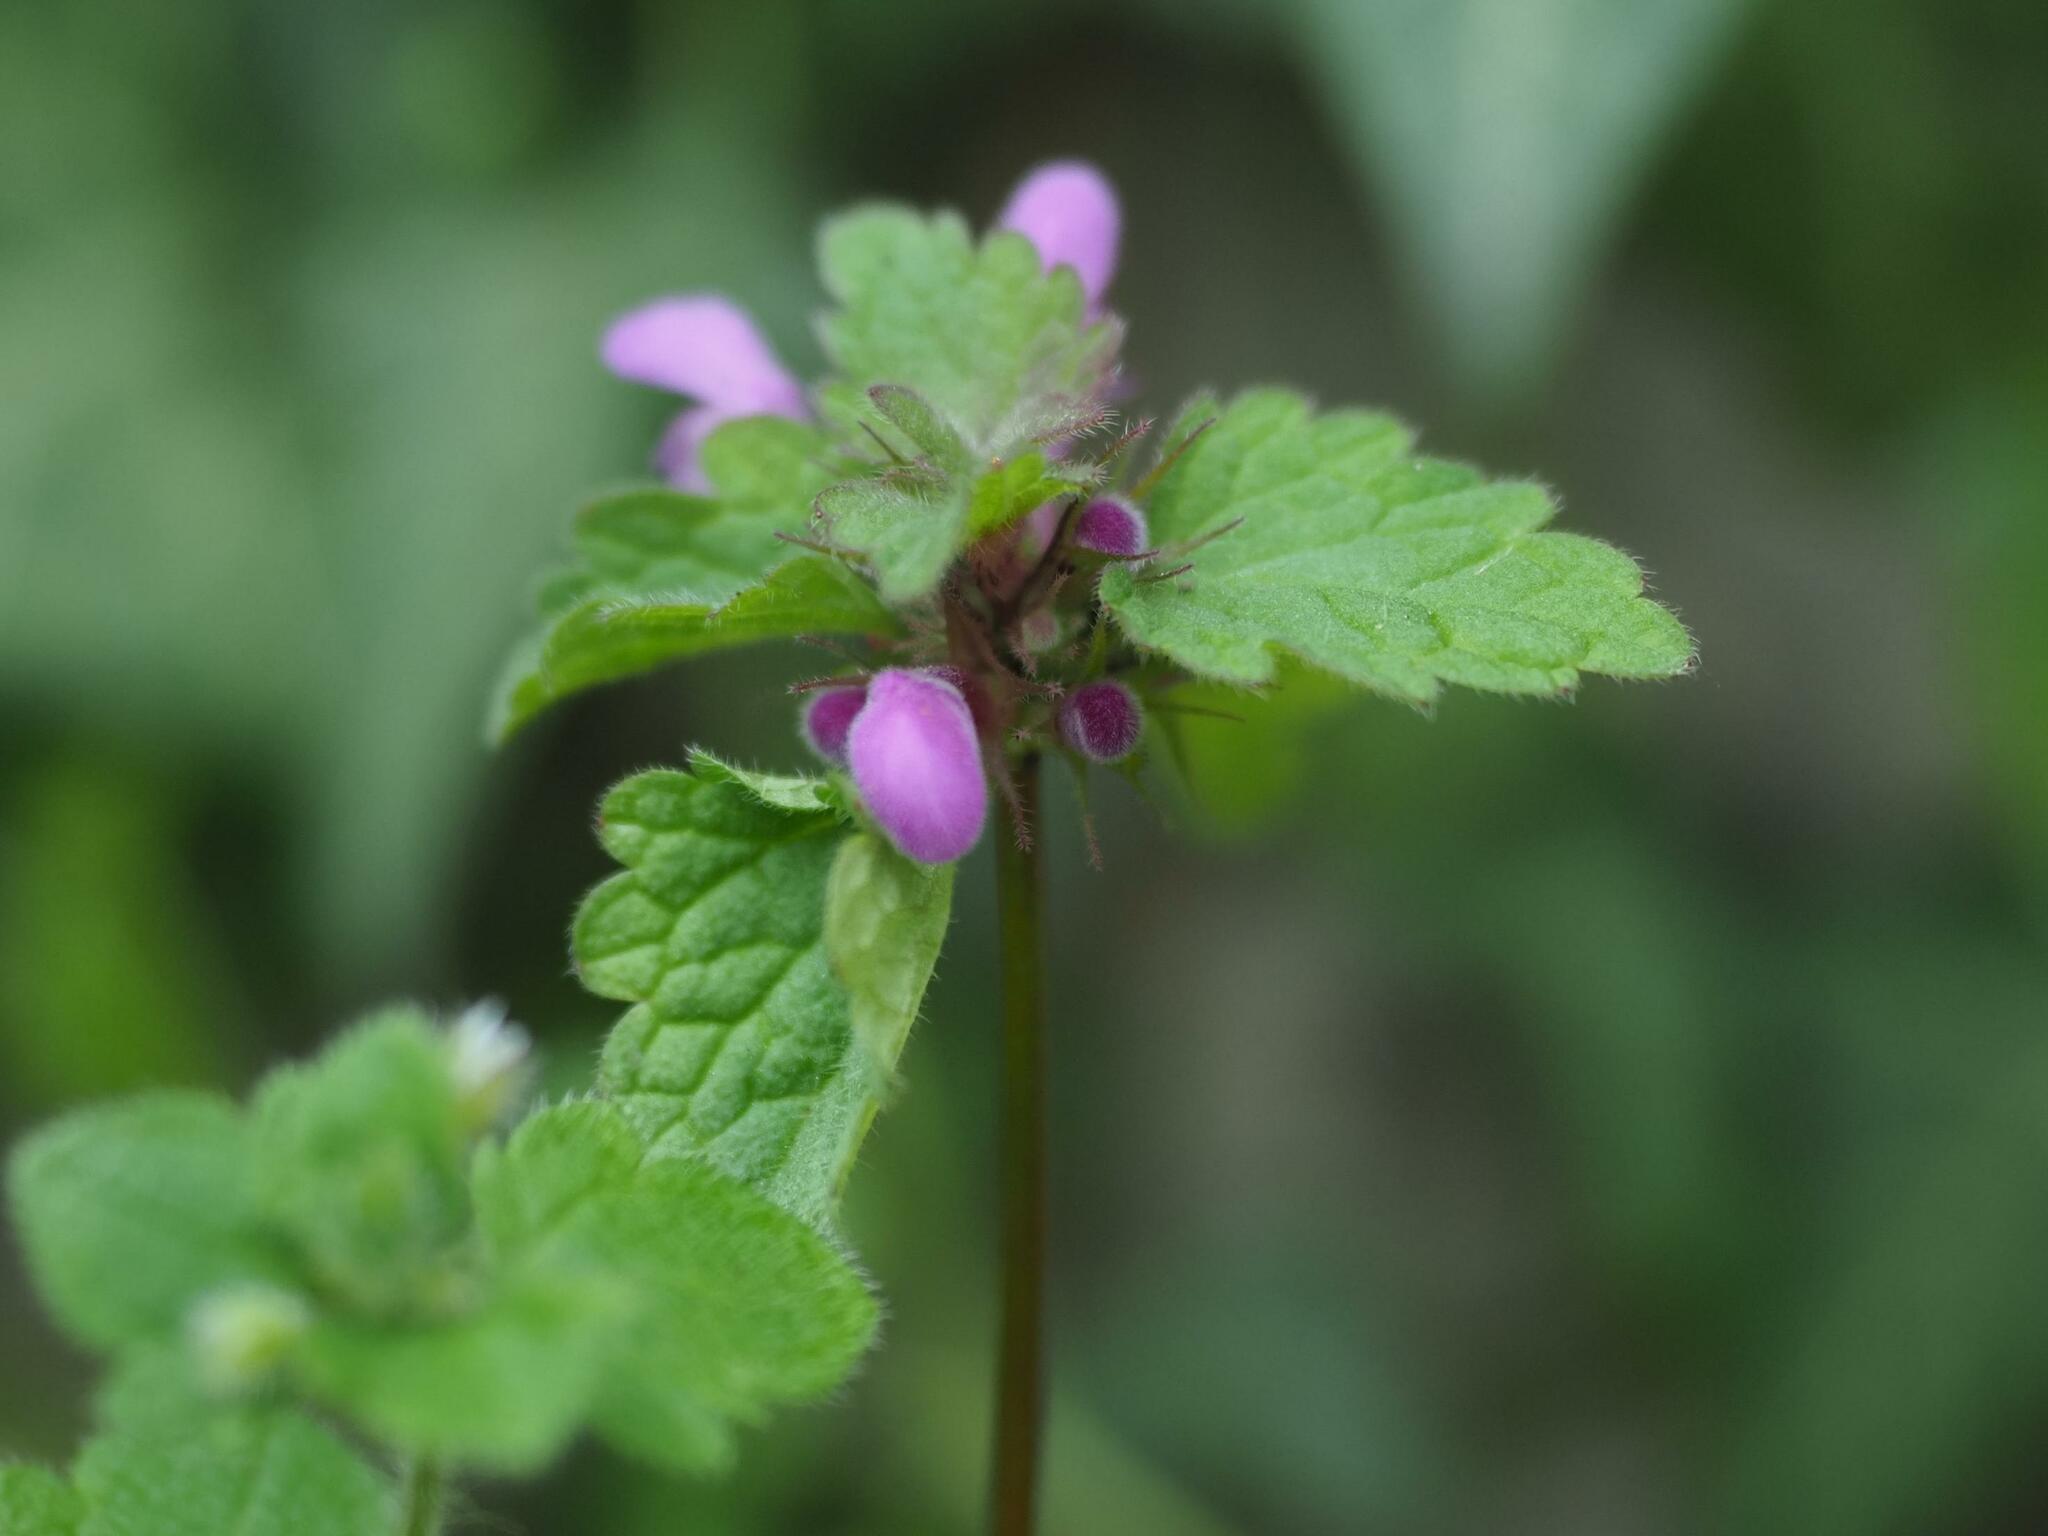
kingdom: Plantae
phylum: Tracheophyta
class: Magnoliopsida
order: Lamiales
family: Lamiaceae
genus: Lamium
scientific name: Lamium purpureum
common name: Red dead-nettle
